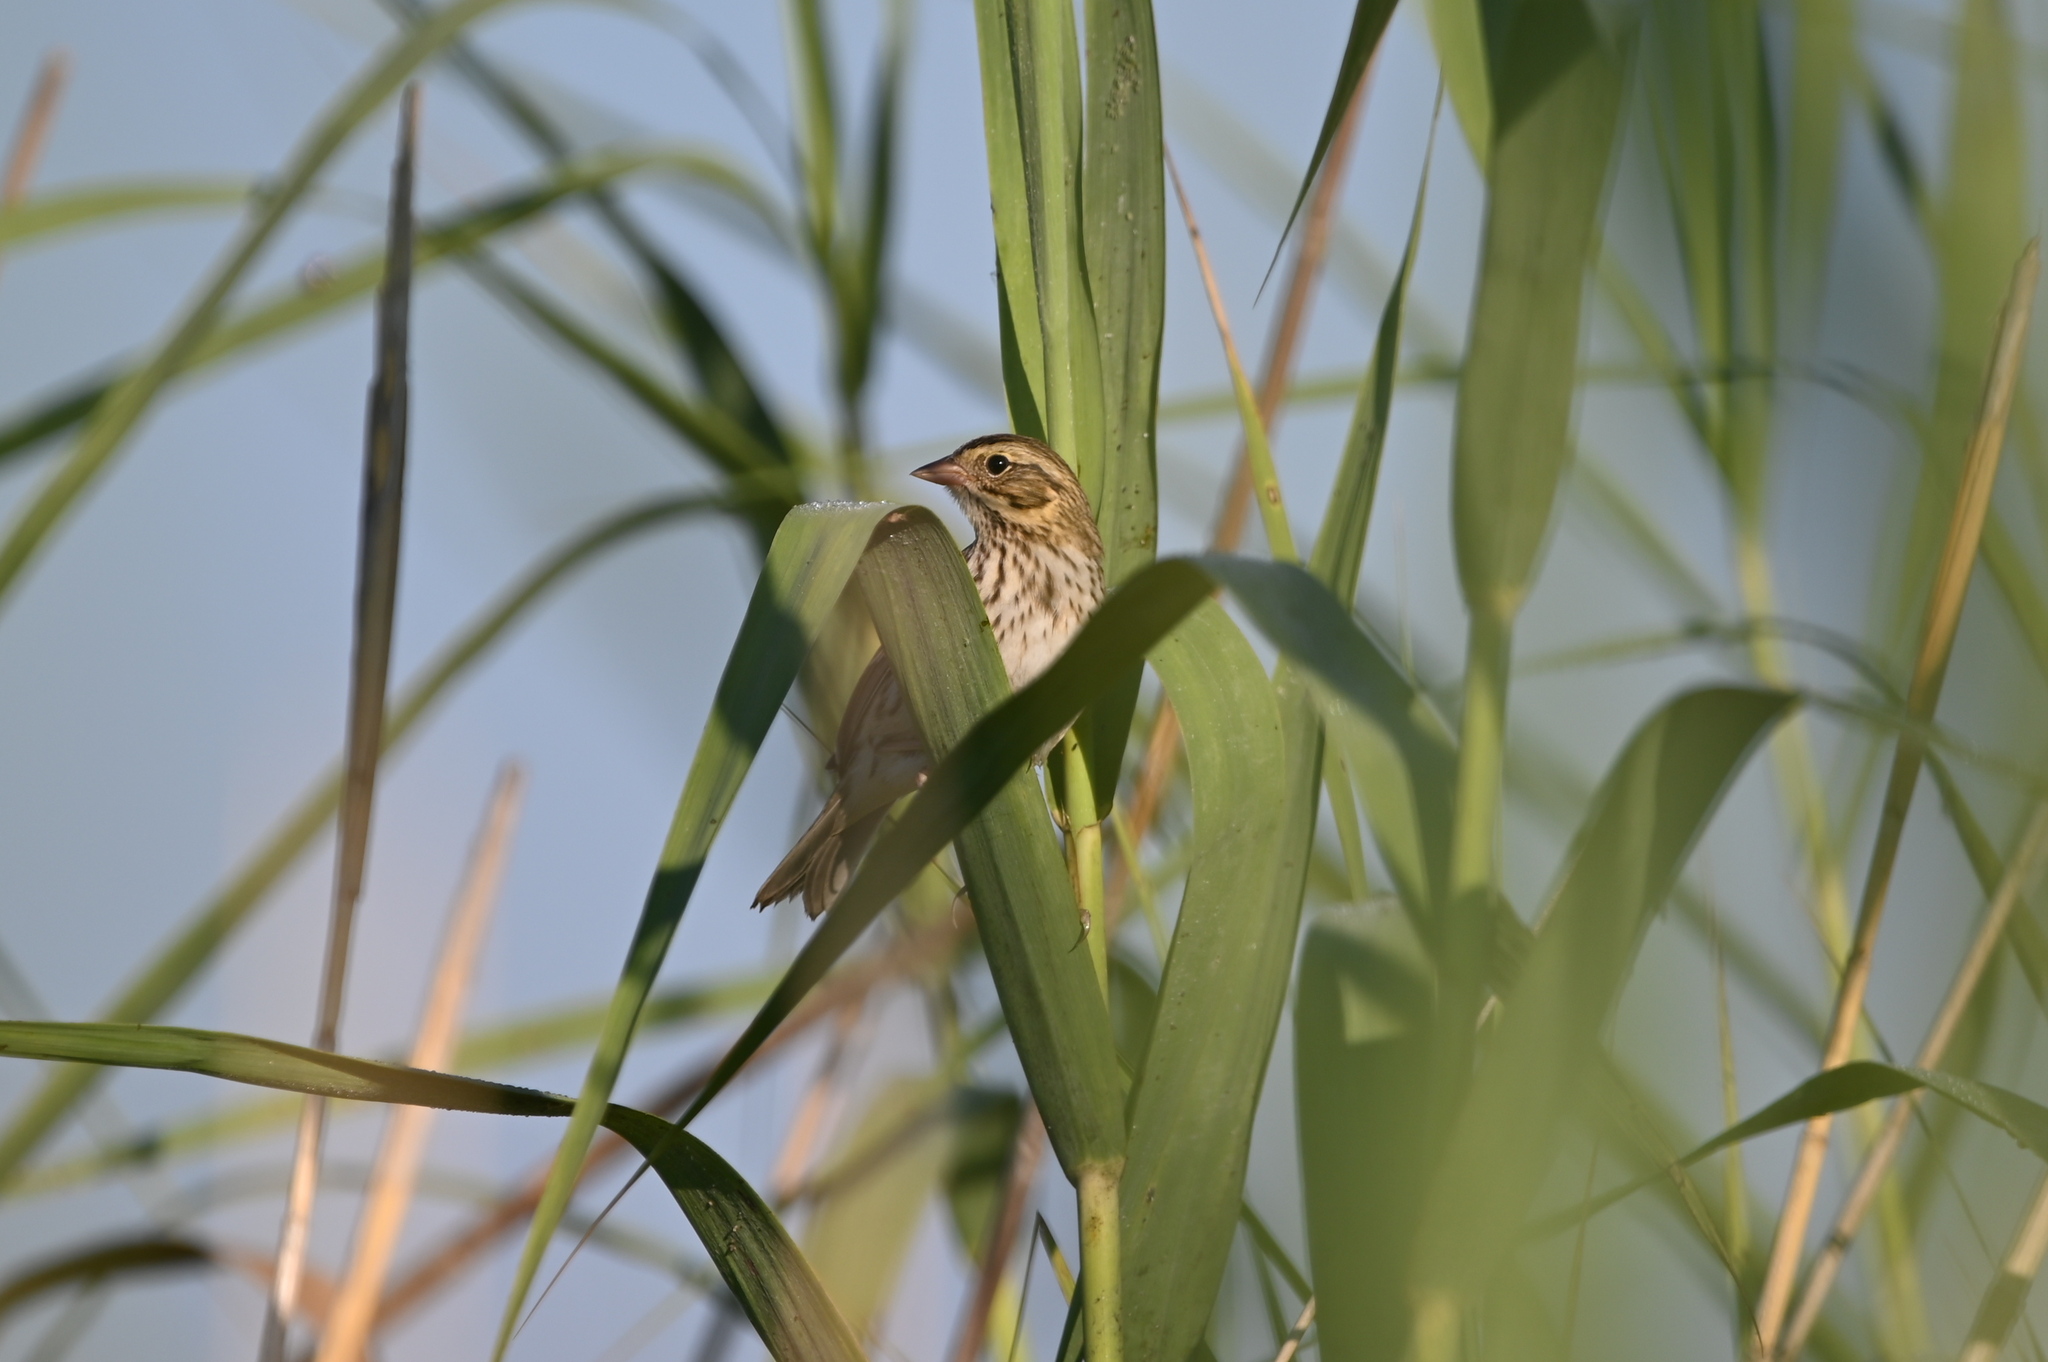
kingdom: Animalia
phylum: Chordata
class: Aves
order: Passeriformes
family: Passerellidae
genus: Passerculus
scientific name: Passerculus sandwichensis
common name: Savannah sparrow
